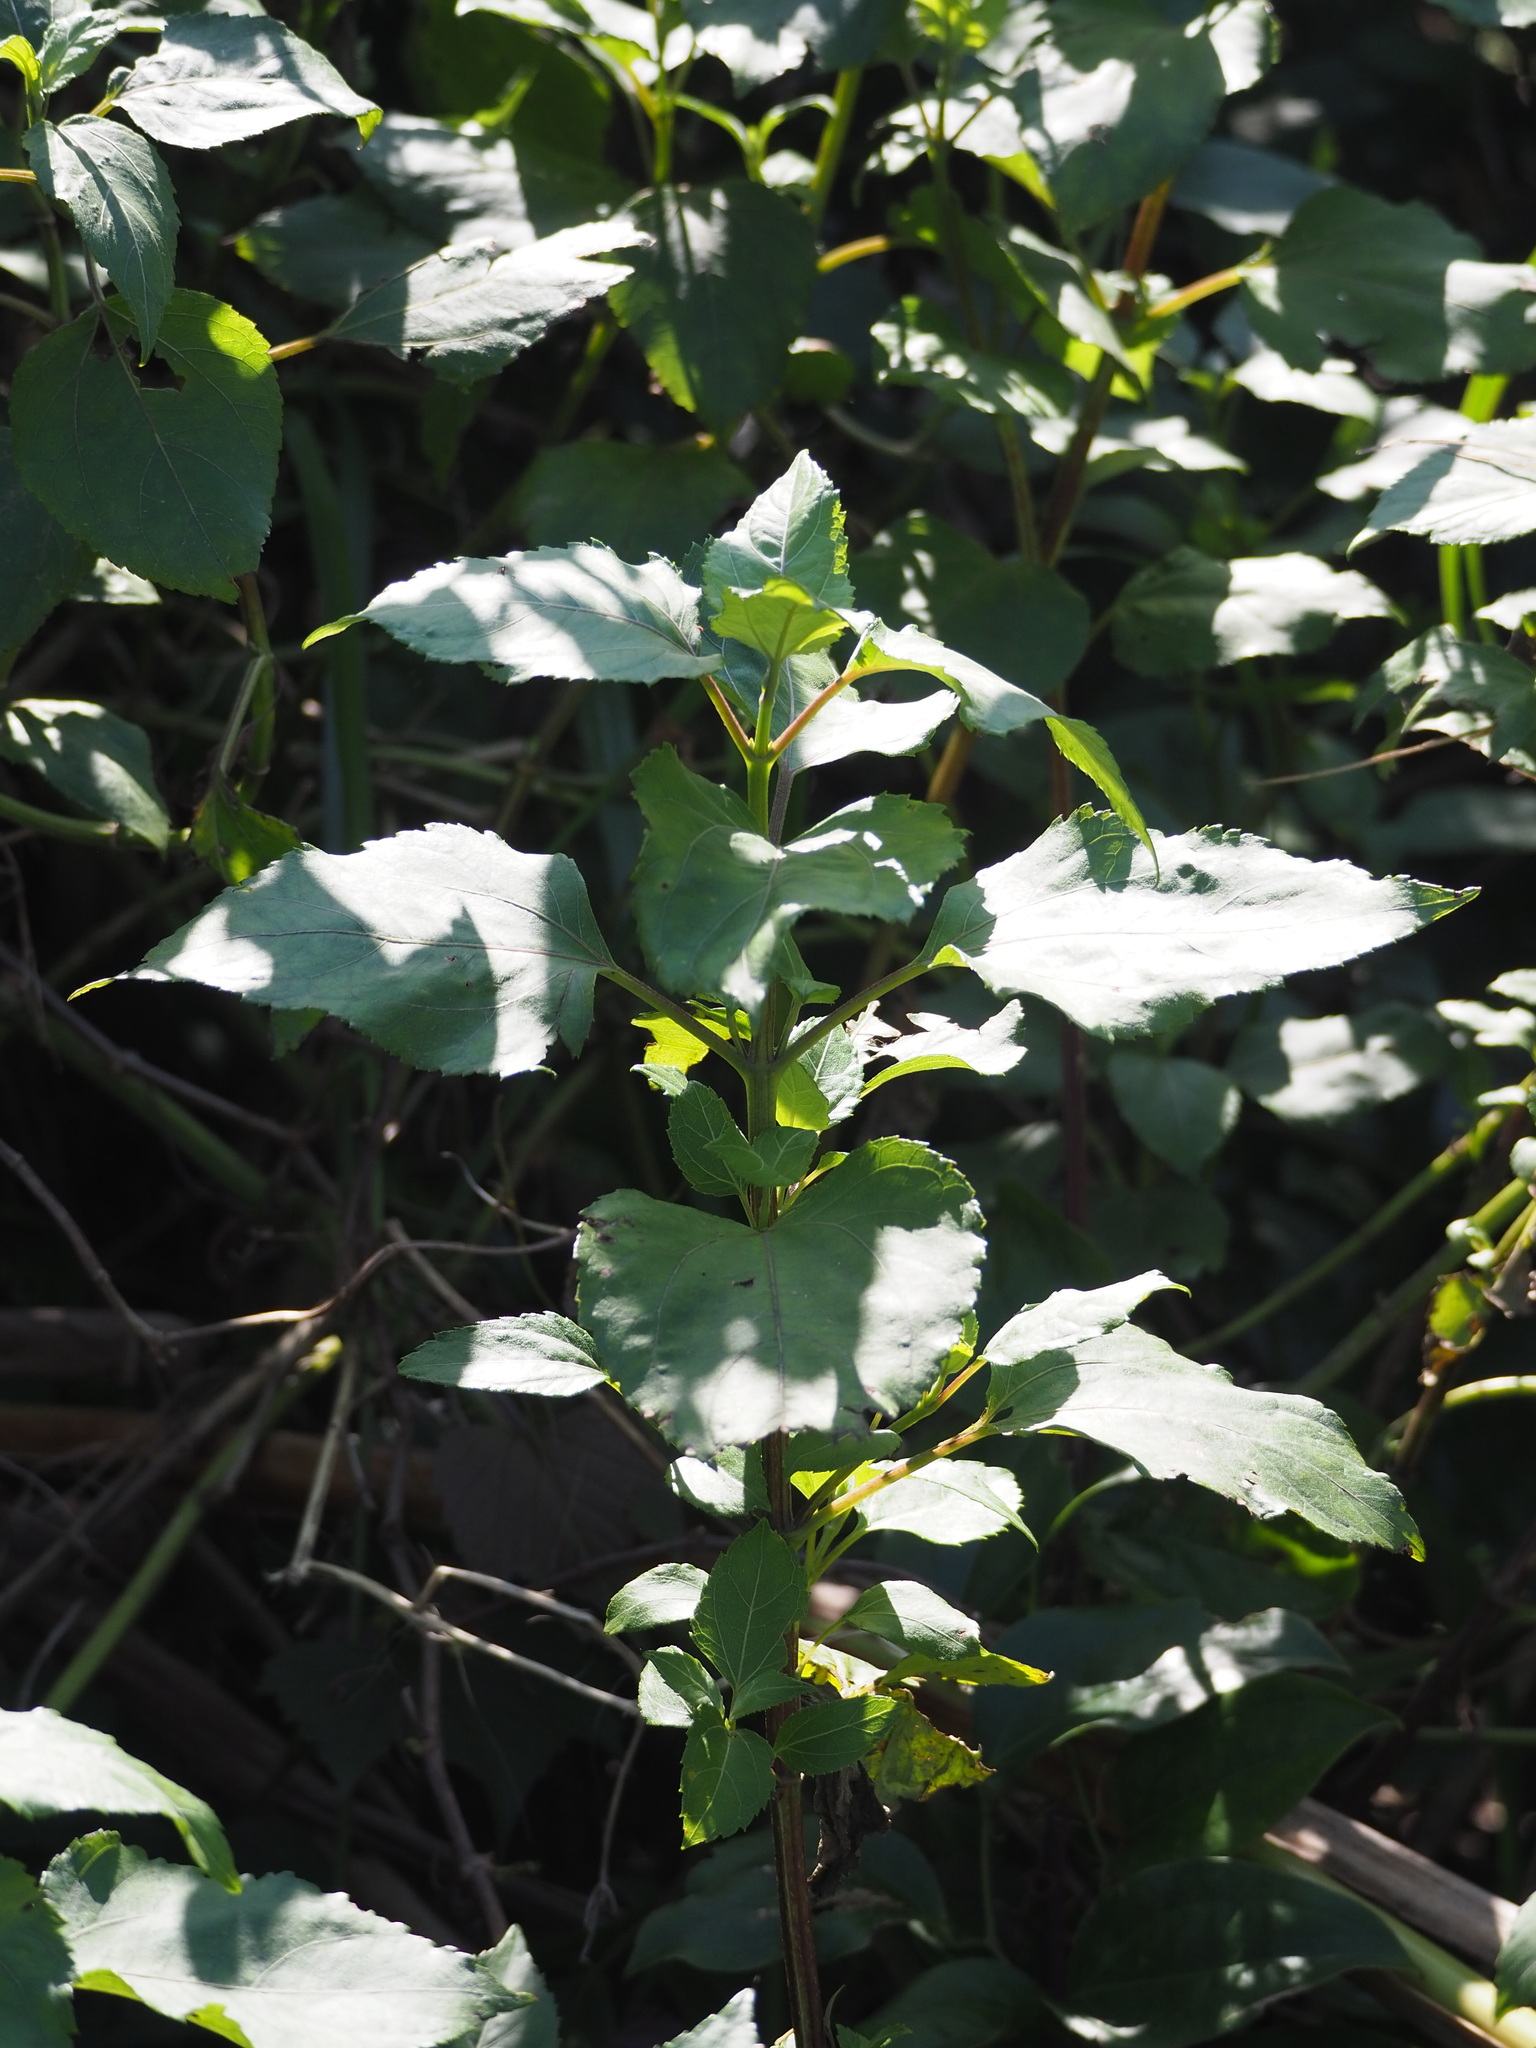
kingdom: Plantae
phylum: Tracheophyta
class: Magnoliopsida
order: Asterales
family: Asteraceae
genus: Wollastonia
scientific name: Wollastonia biflora
